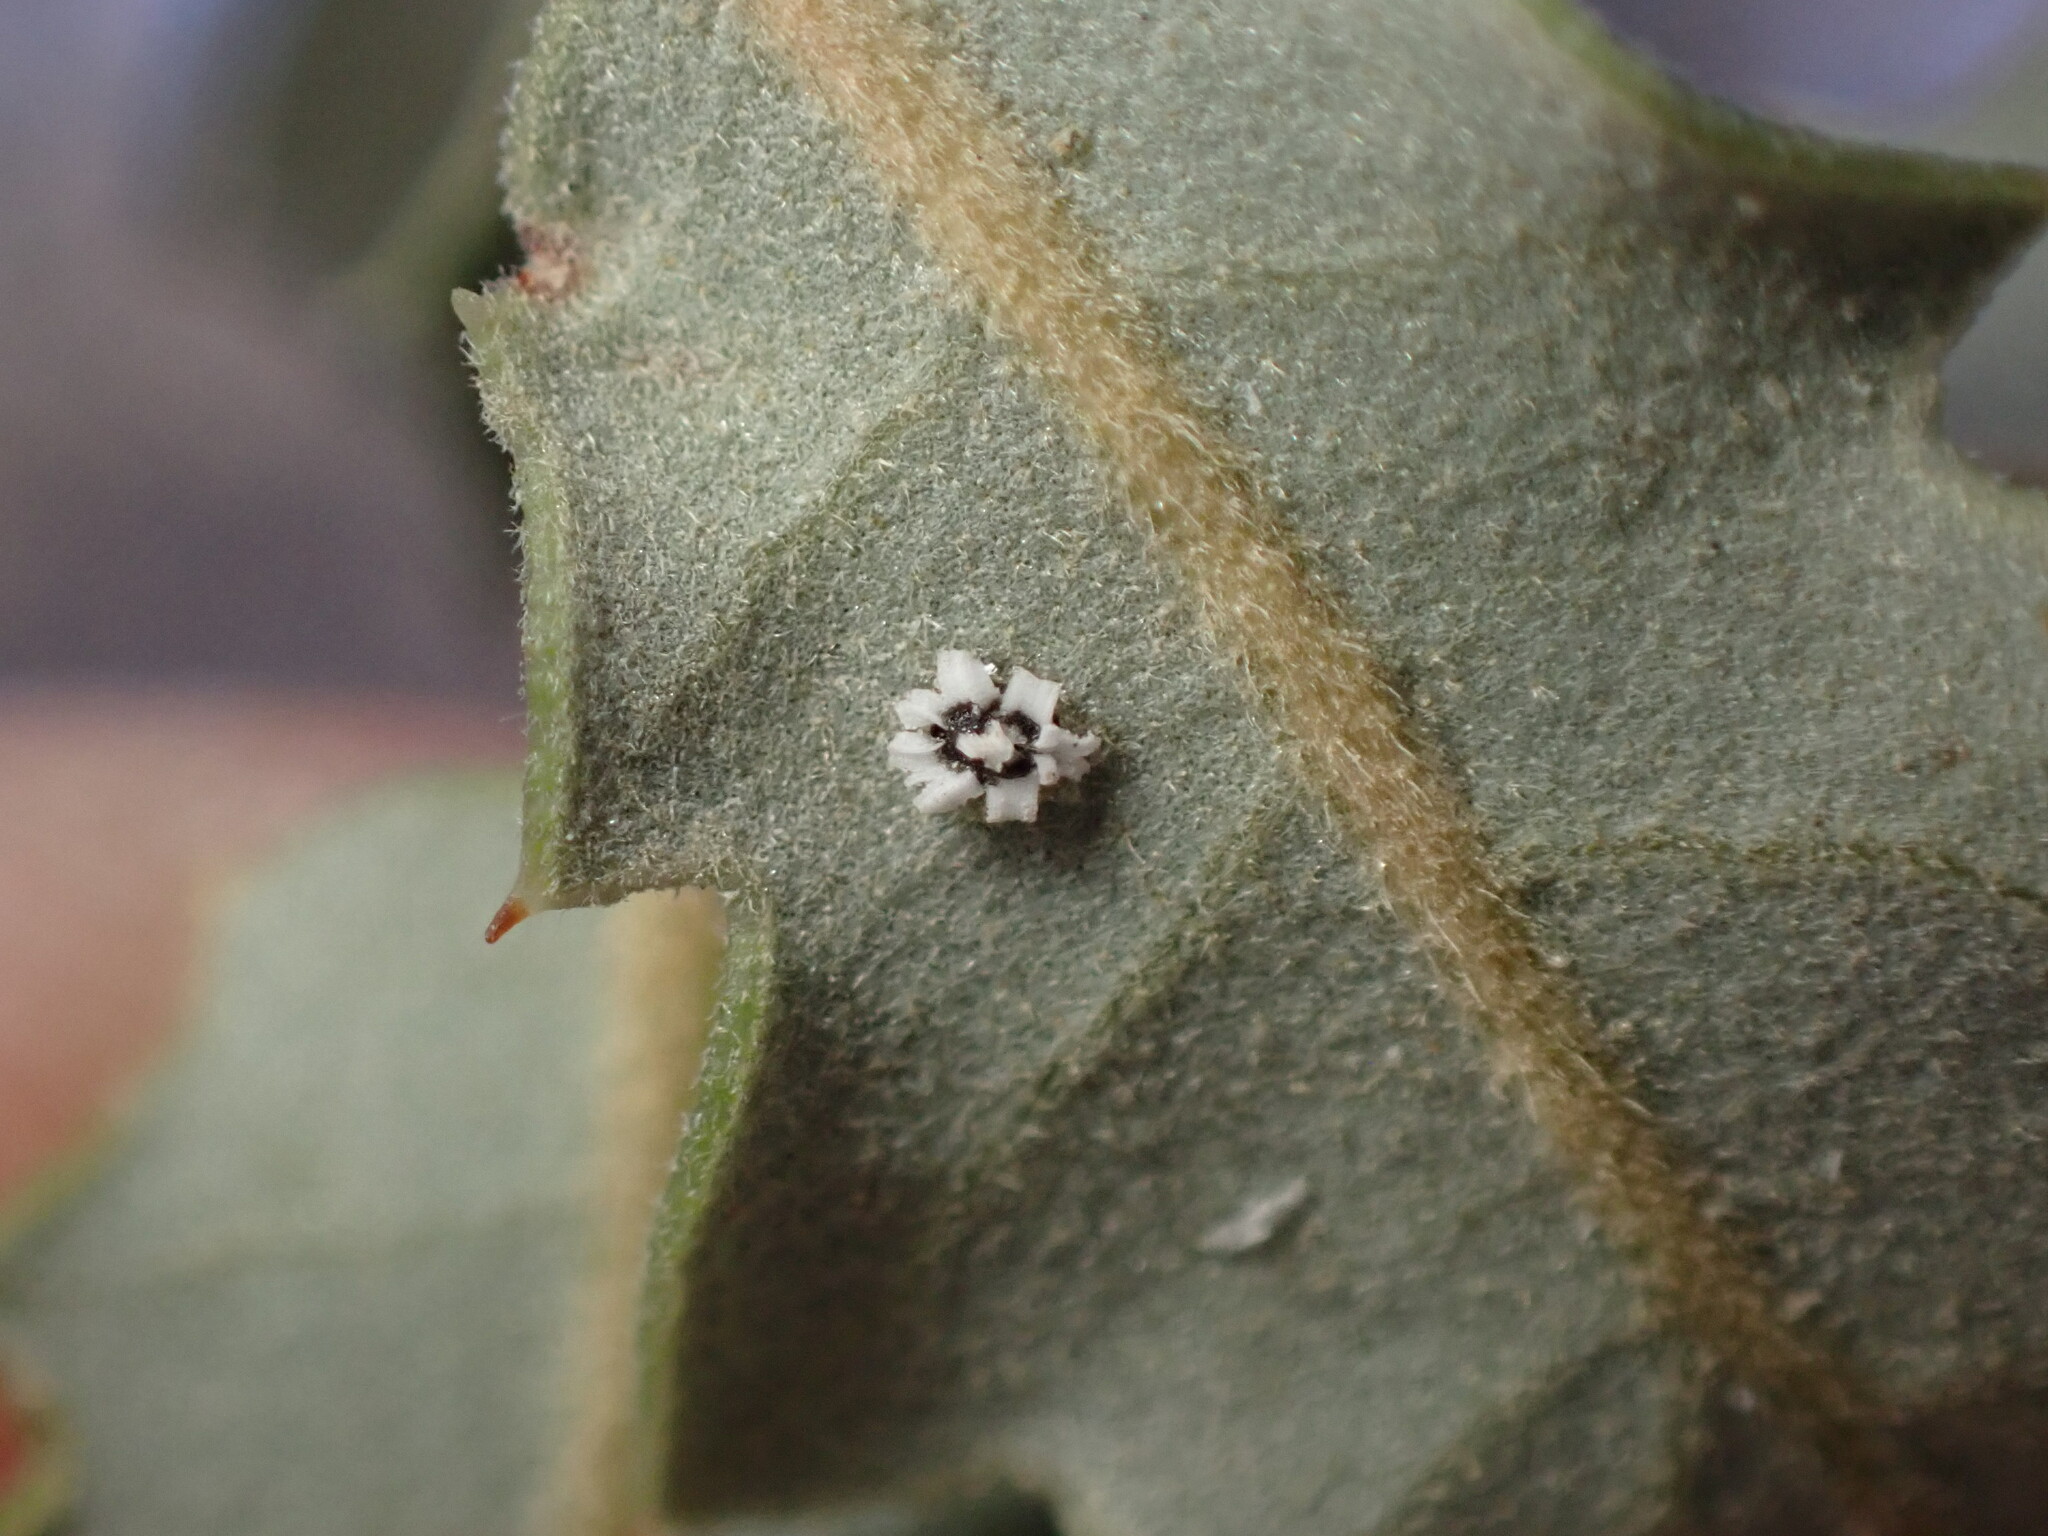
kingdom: Animalia
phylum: Arthropoda
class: Insecta
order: Hemiptera
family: Aleyrodidae
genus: Aleuroplatus
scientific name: Aleuroplatus coronata
